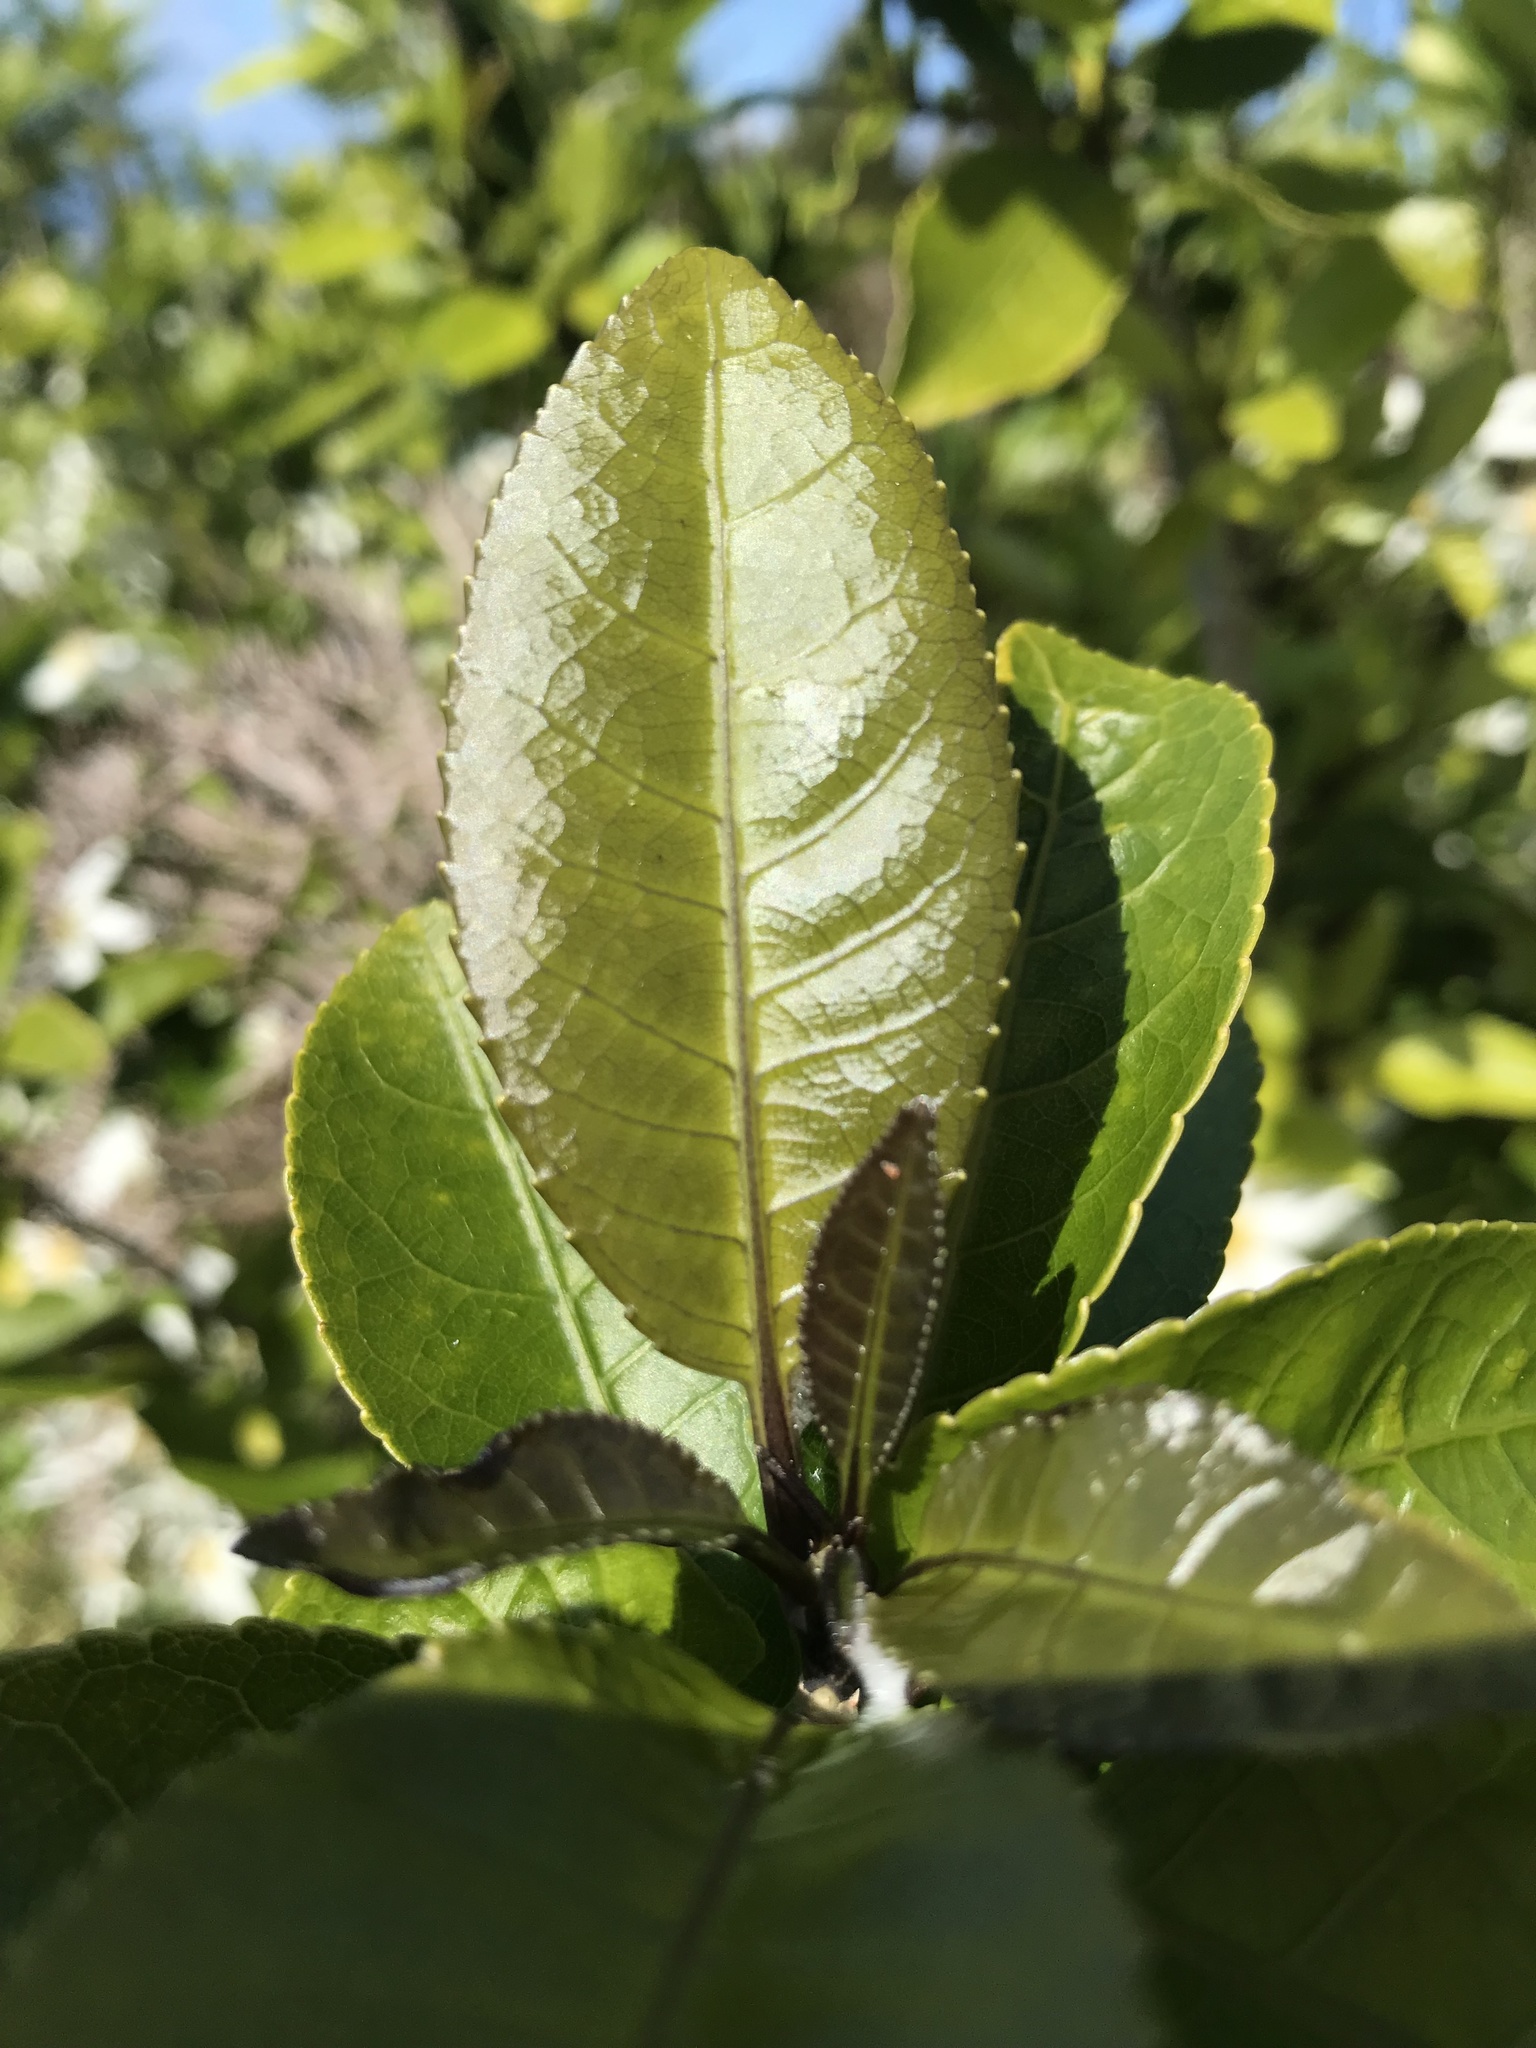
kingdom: Plantae
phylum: Tracheophyta
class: Magnoliopsida
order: Malpighiales
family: Violaceae
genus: Melicytus
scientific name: Melicytus ramiflorus
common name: Mahoe
